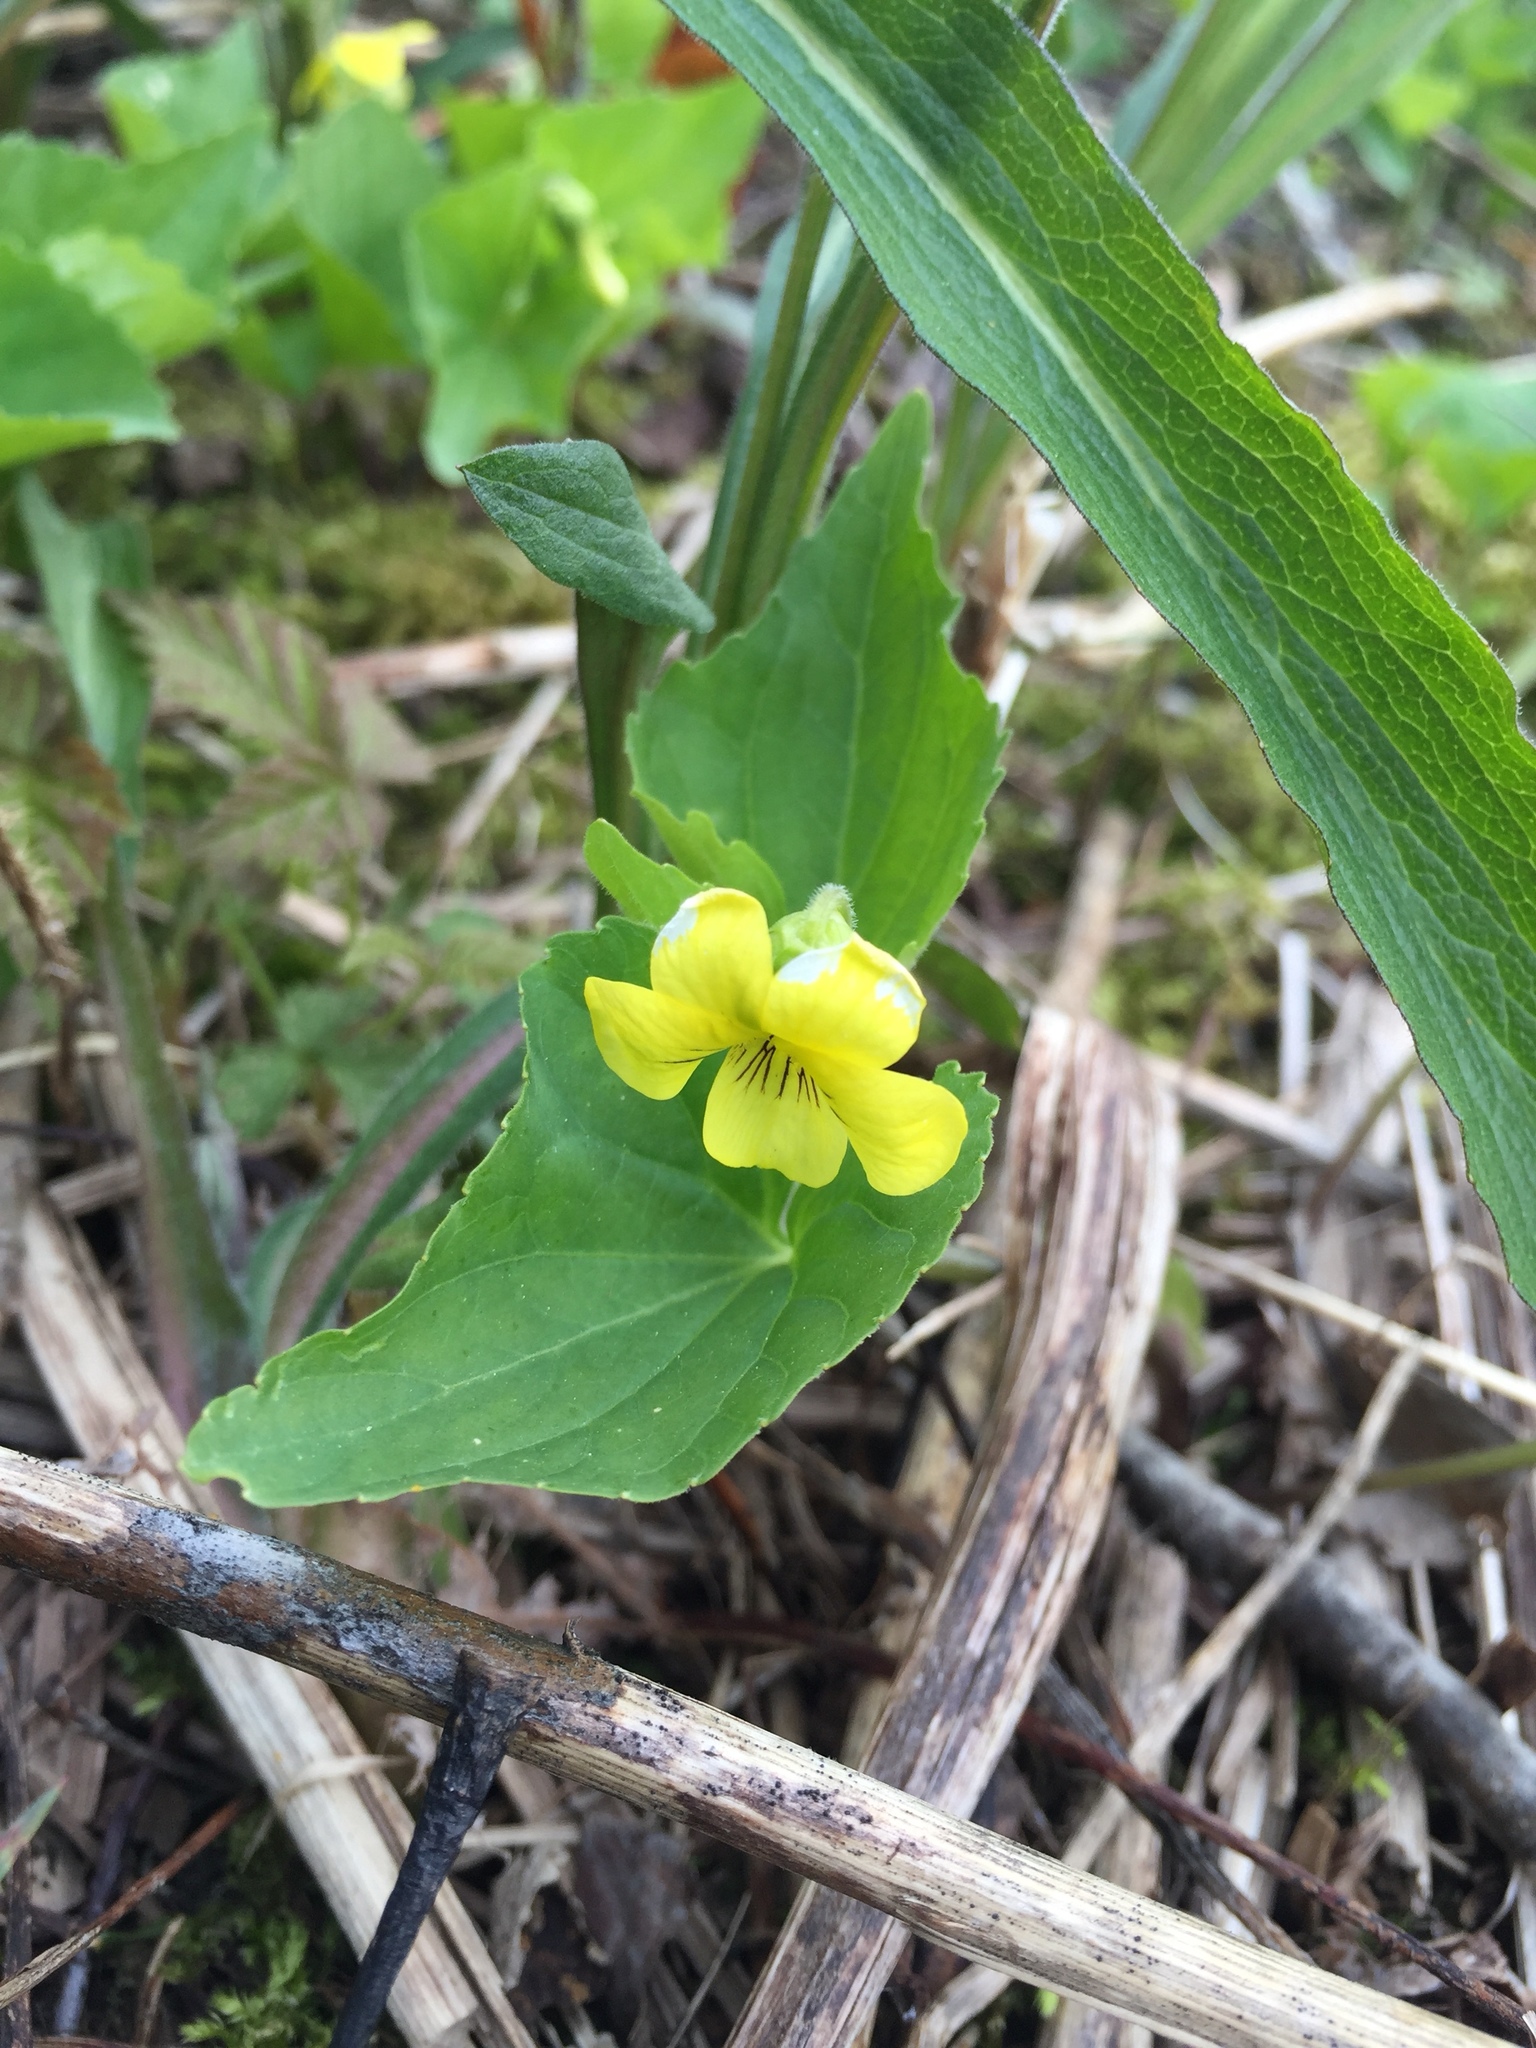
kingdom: Plantae
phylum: Tracheophyta
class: Magnoliopsida
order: Malpighiales
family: Violaceae
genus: Viola
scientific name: Viola eriocarpa
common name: Smooth yellow violet
